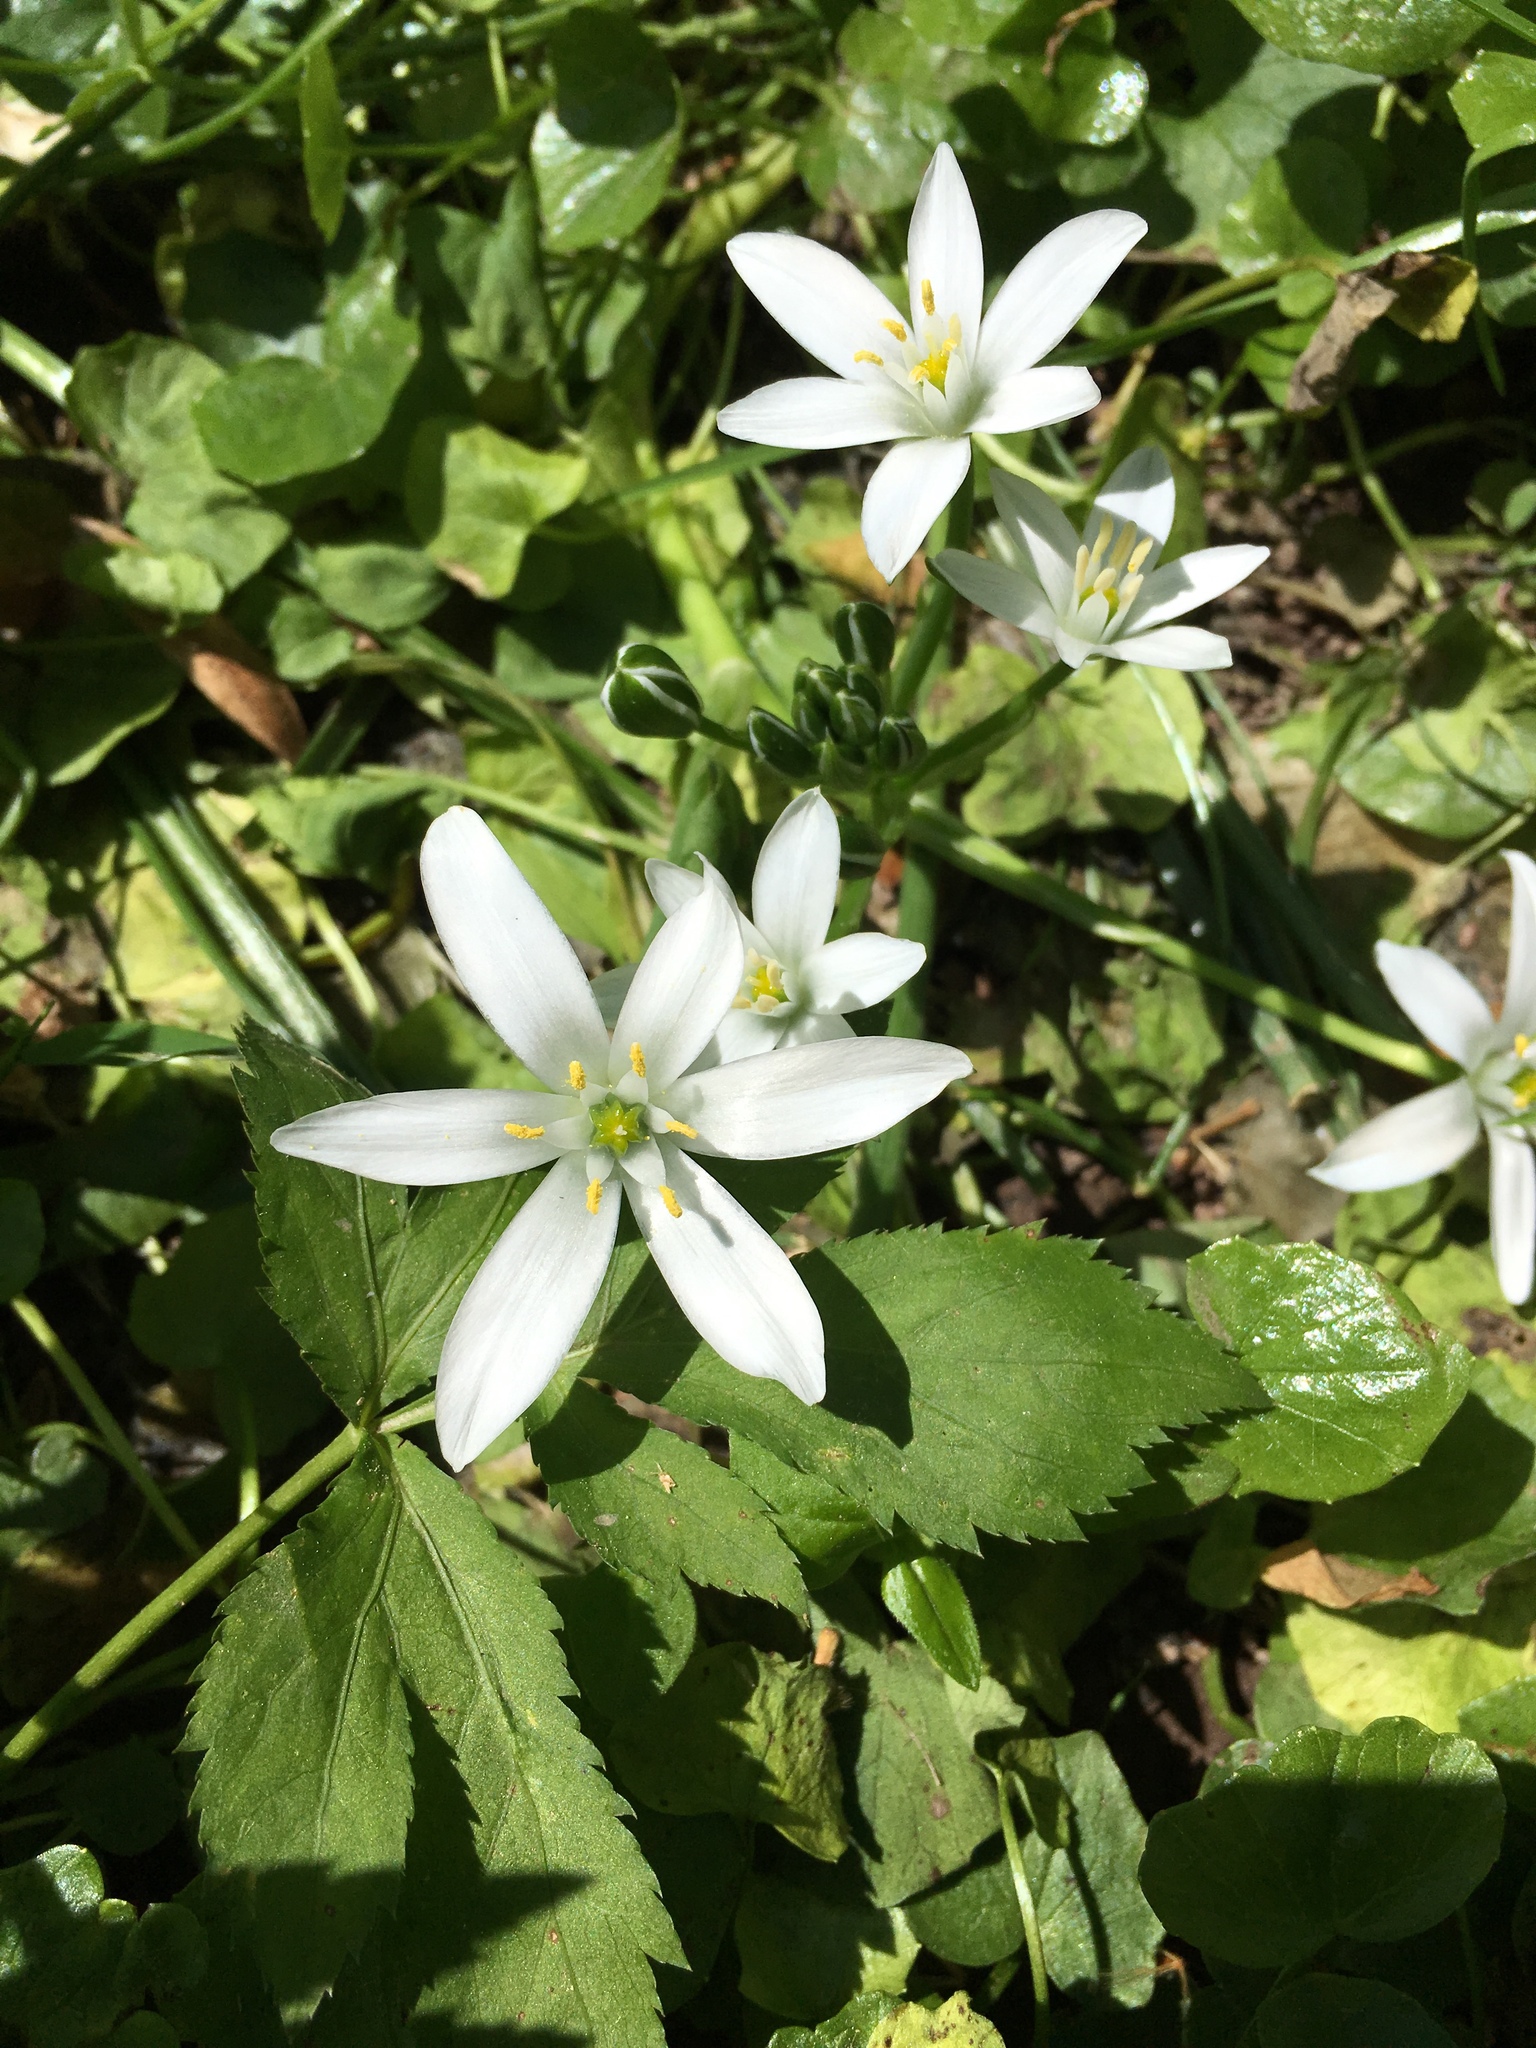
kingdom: Plantae
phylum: Tracheophyta
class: Liliopsida
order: Asparagales
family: Asparagaceae
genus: Ornithogalum
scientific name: Ornithogalum umbellatum
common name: Garden star-of-bethlehem
